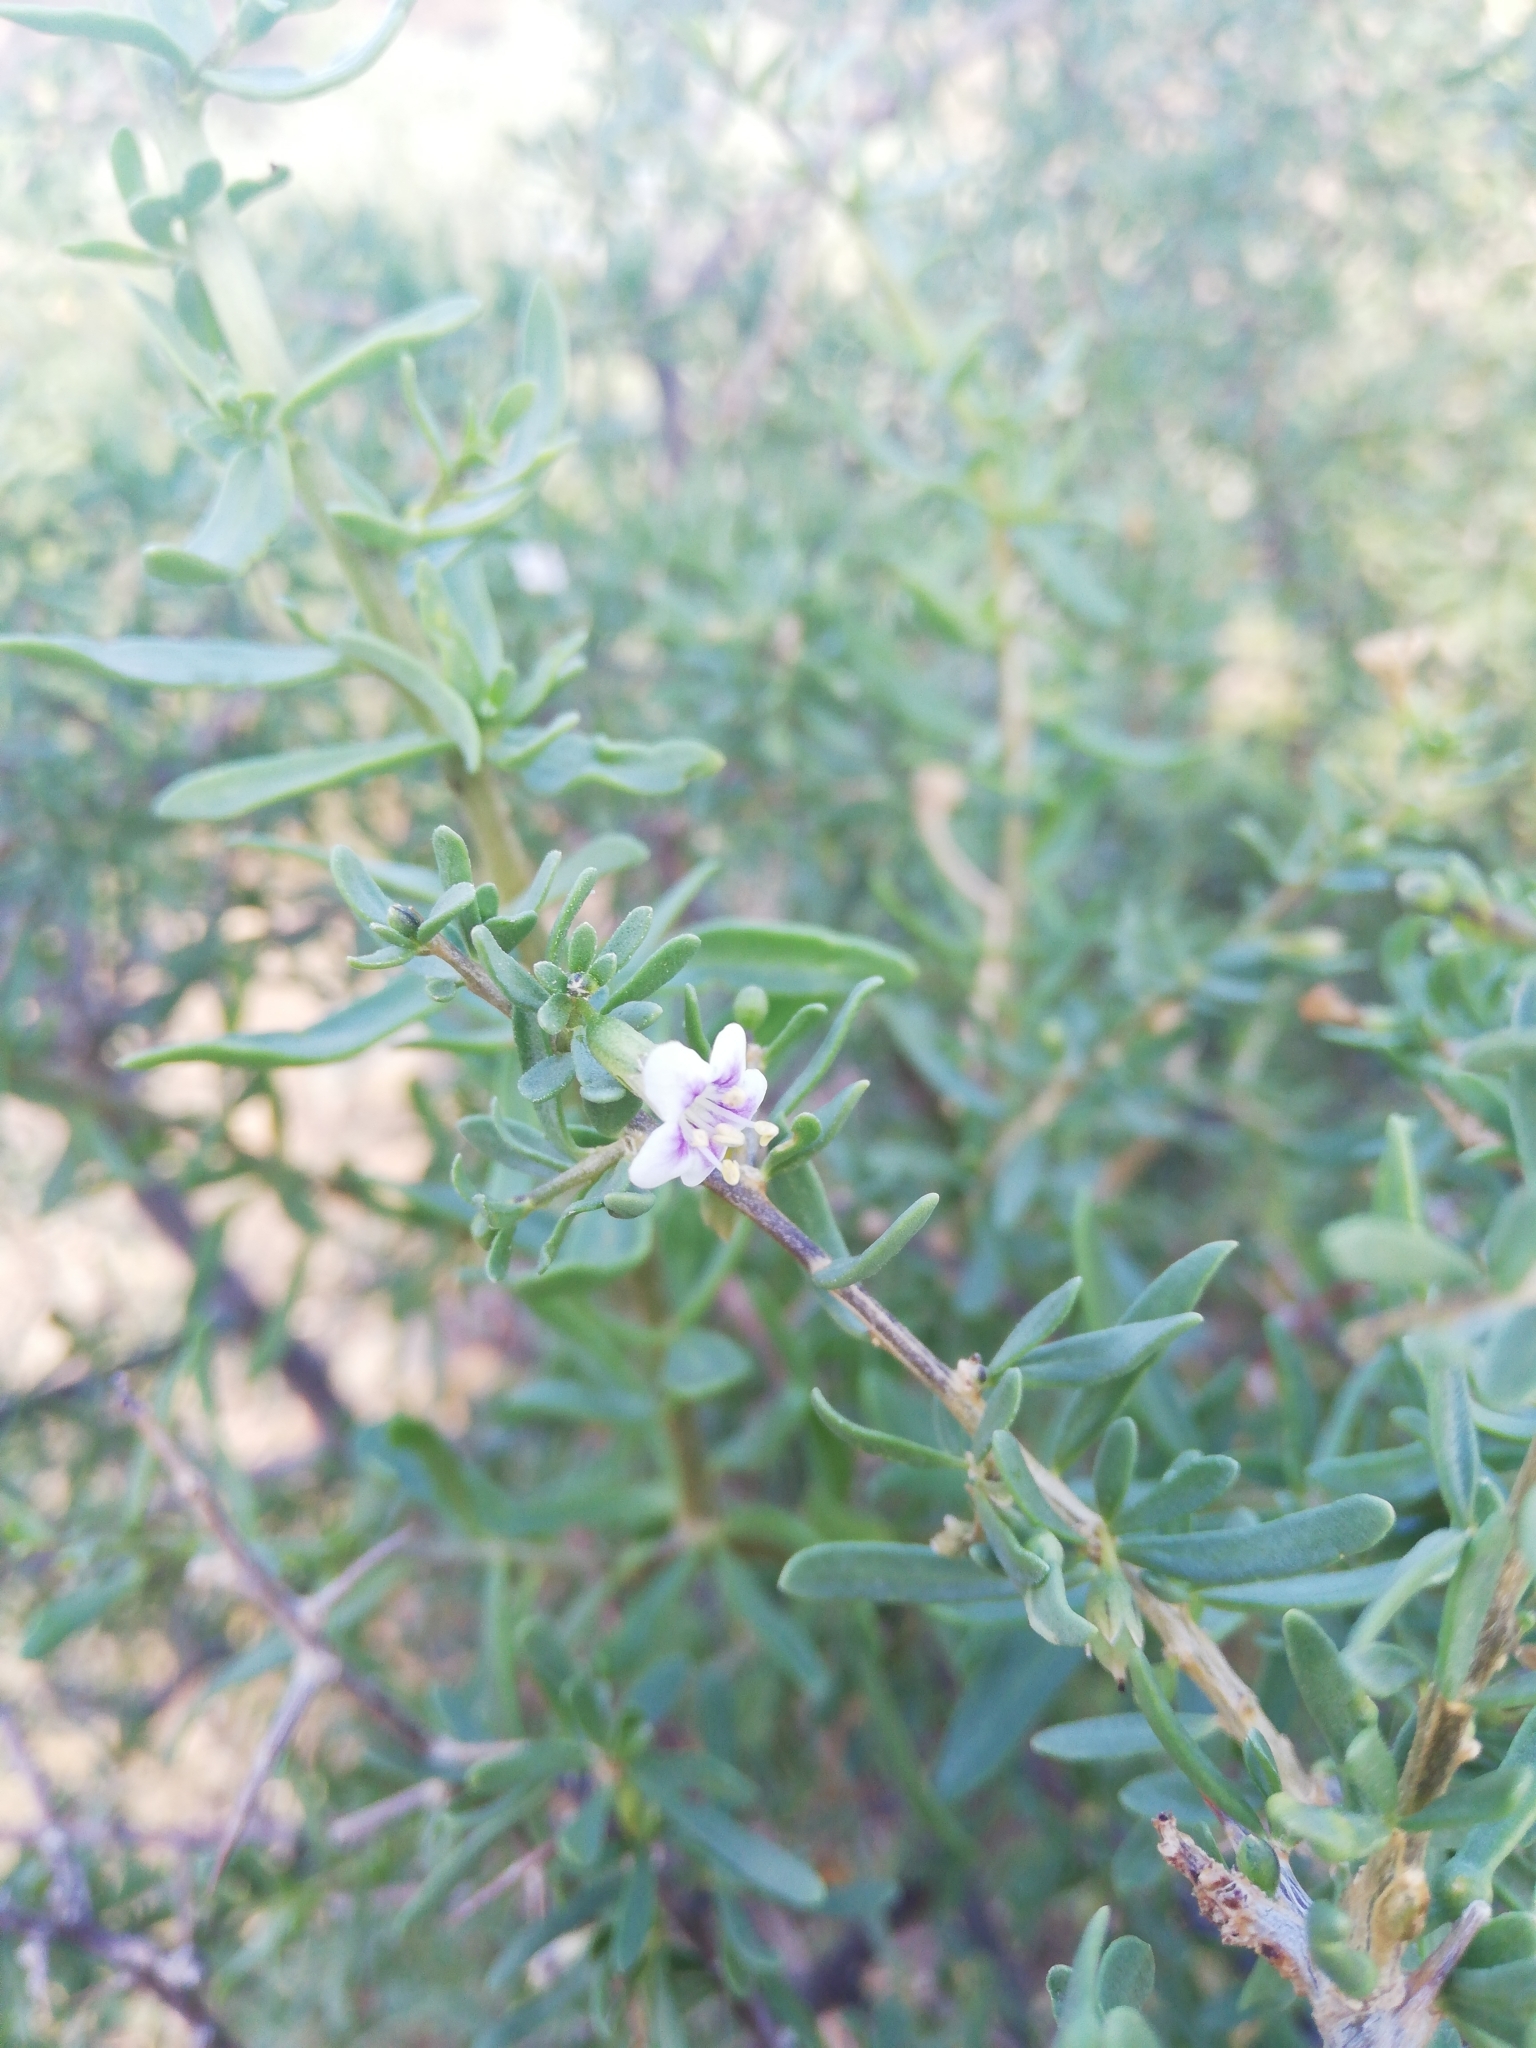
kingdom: Plantae
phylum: Tracheophyta
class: Magnoliopsida
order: Solanales
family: Solanaceae
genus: Lycium
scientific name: Lycium cinereum
